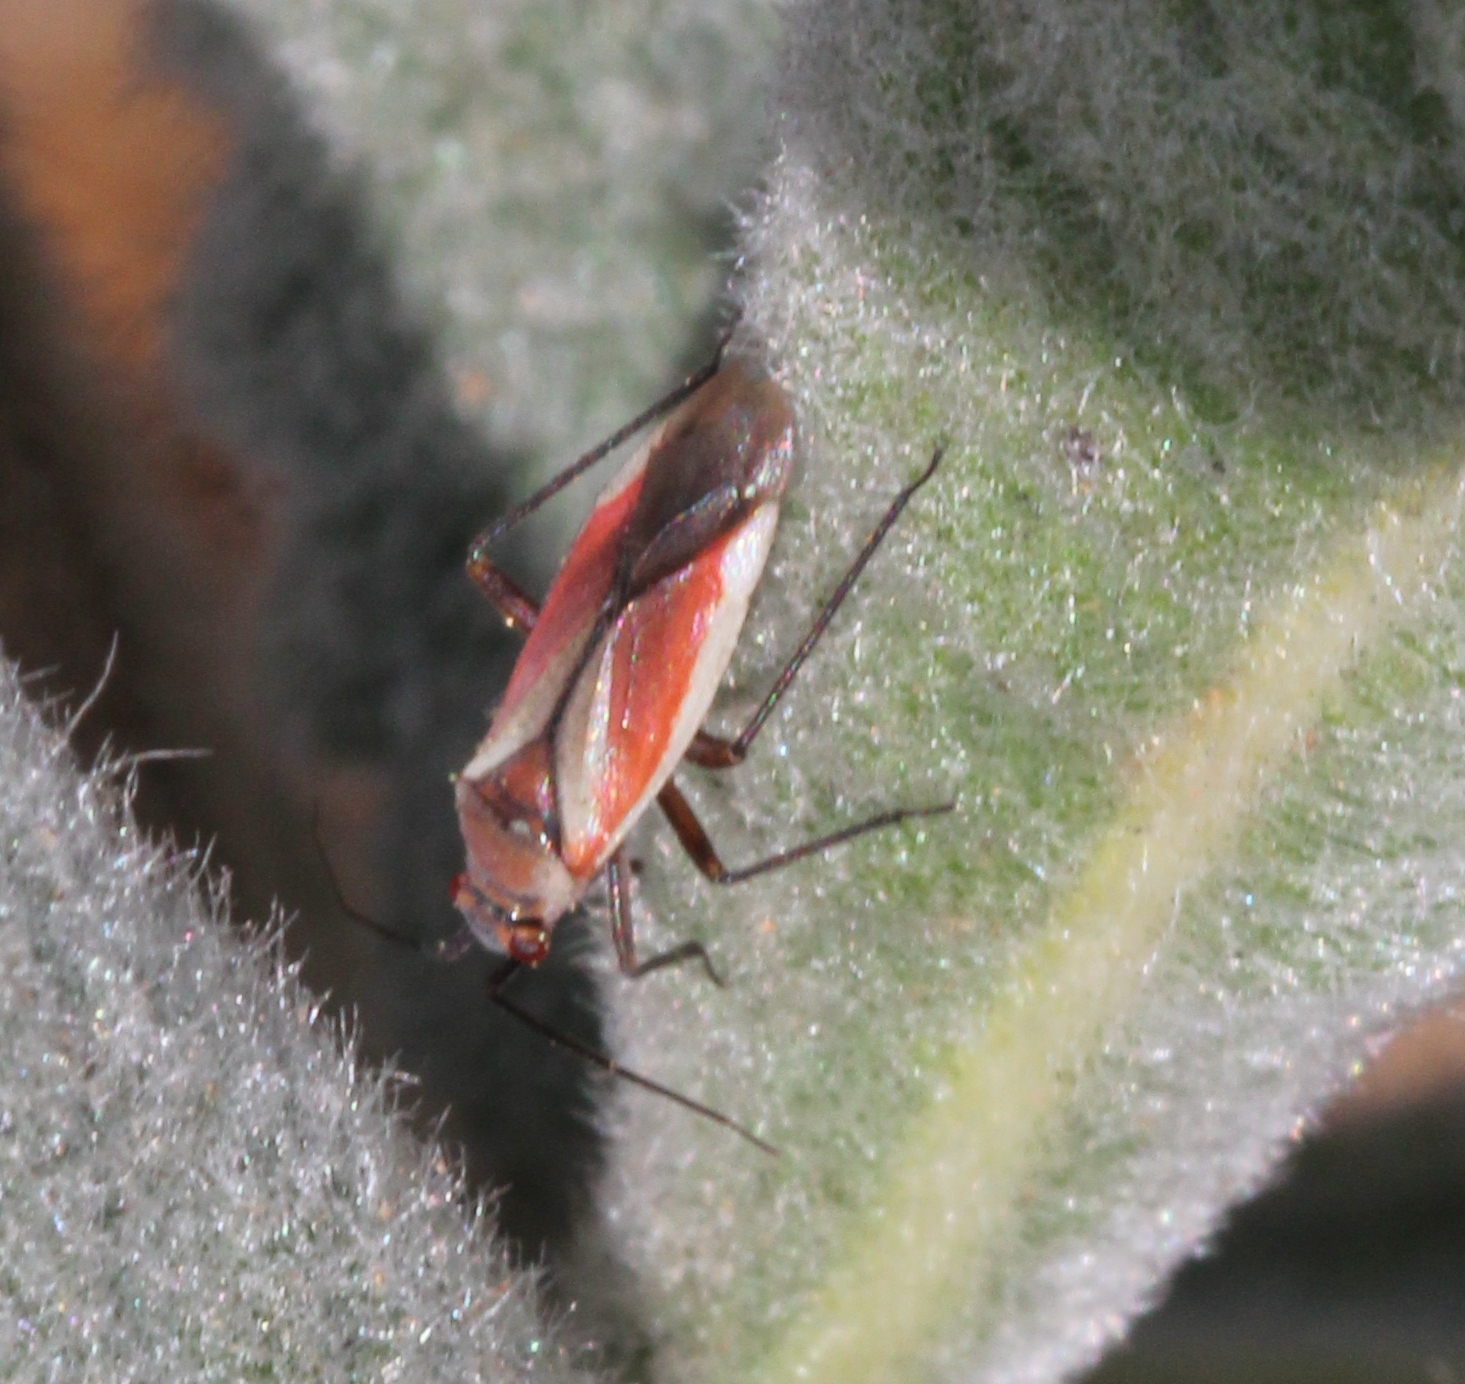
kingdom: Animalia
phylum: Arthropoda
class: Insecta
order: Hemiptera
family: Miridae
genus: Lopidea
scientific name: Lopidea marginata
